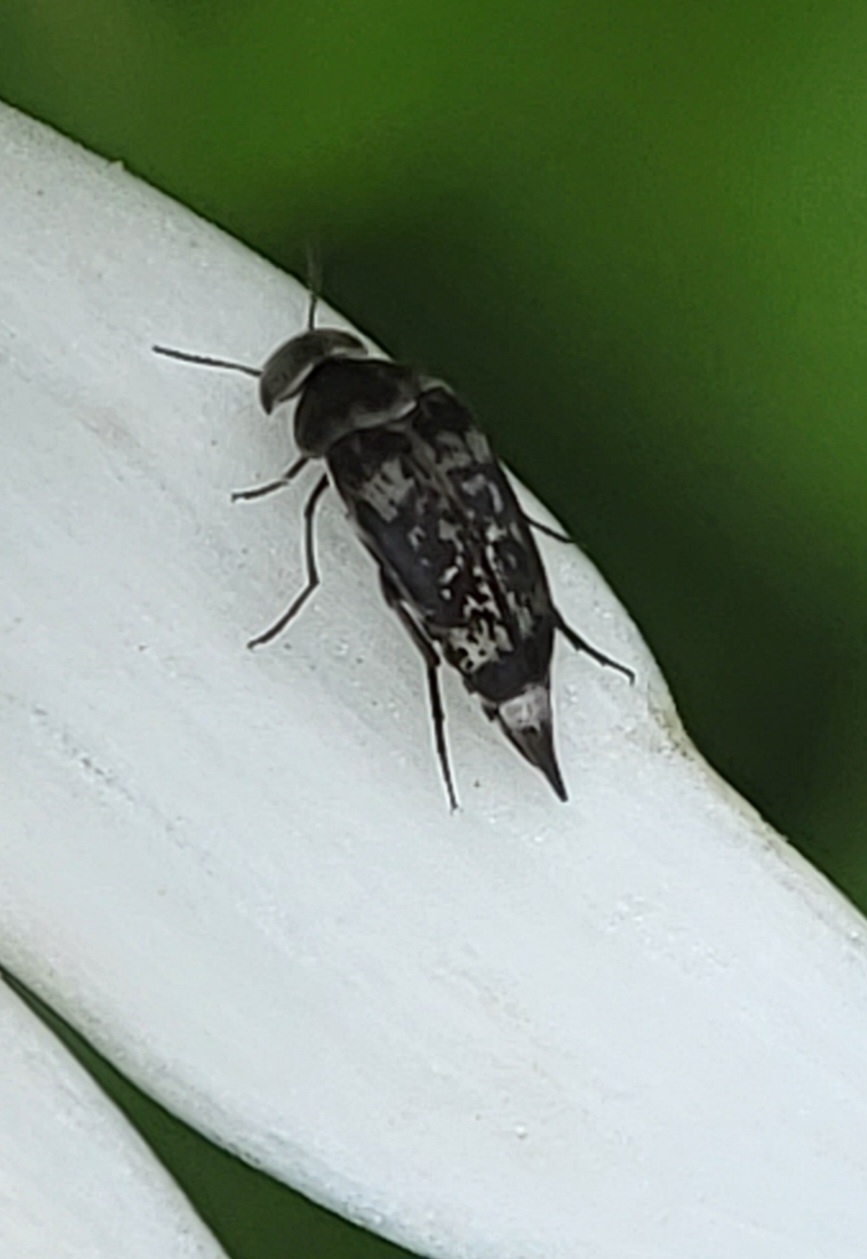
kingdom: Animalia
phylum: Arthropoda
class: Insecta
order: Coleoptera
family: Mordellidae
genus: Mordella
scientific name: Mordella marginata
